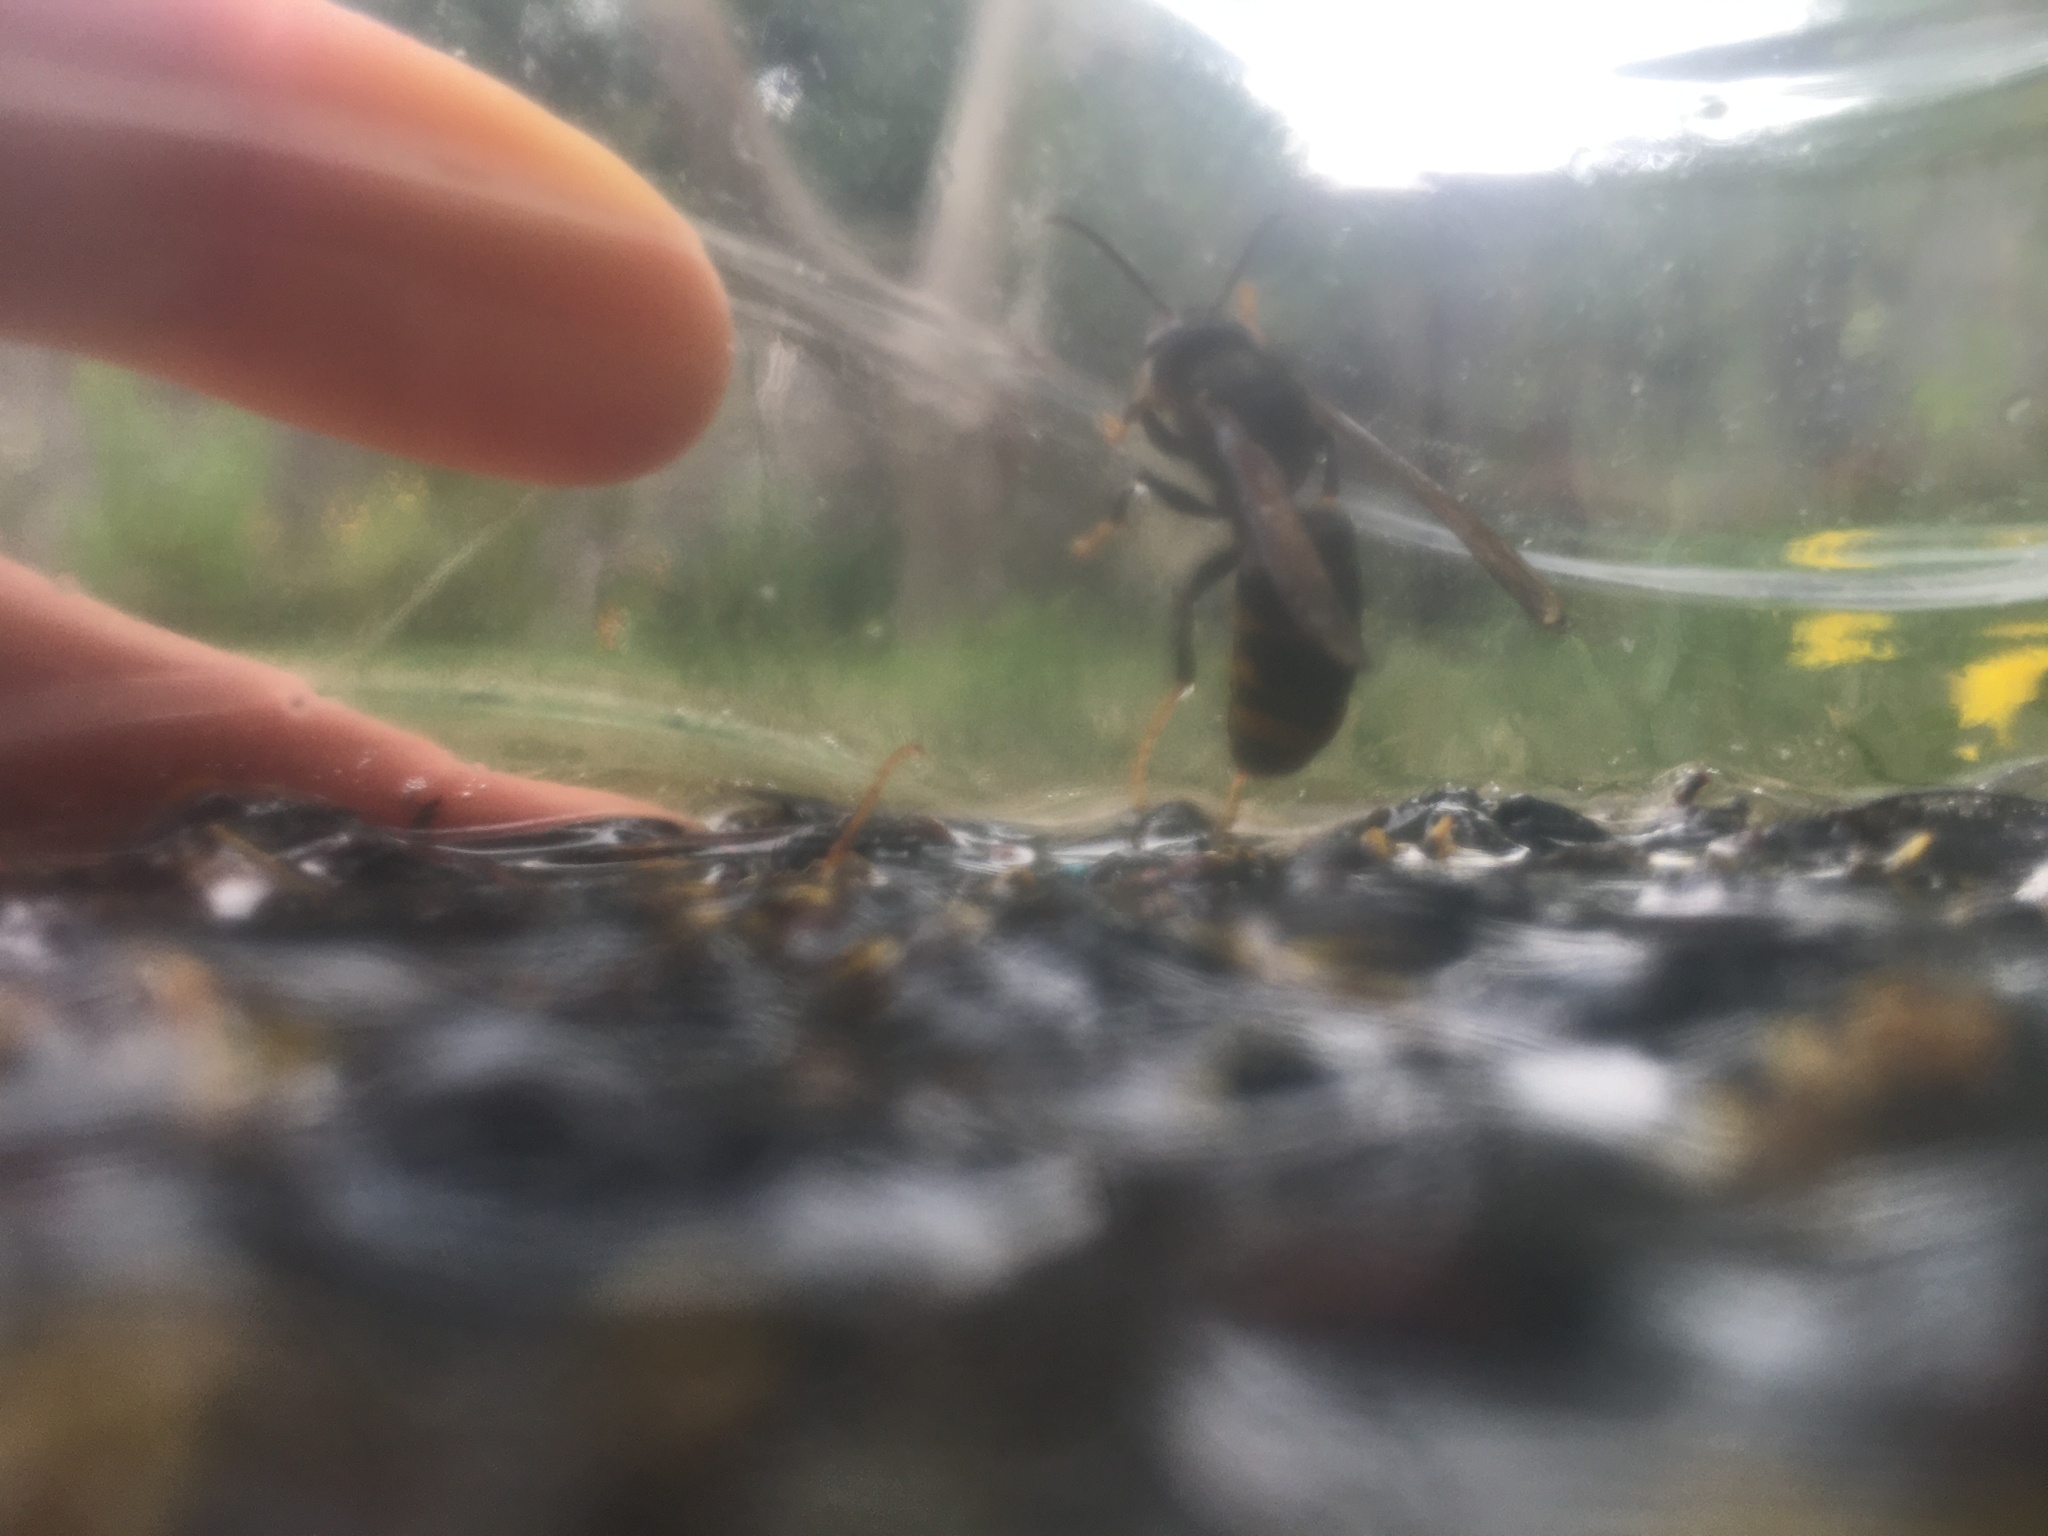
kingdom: Animalia
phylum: Arthropoda
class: Insecta
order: Hymenoptera
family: Vespidae
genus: Vespa
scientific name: Vespa velutina
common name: Asian hornet
